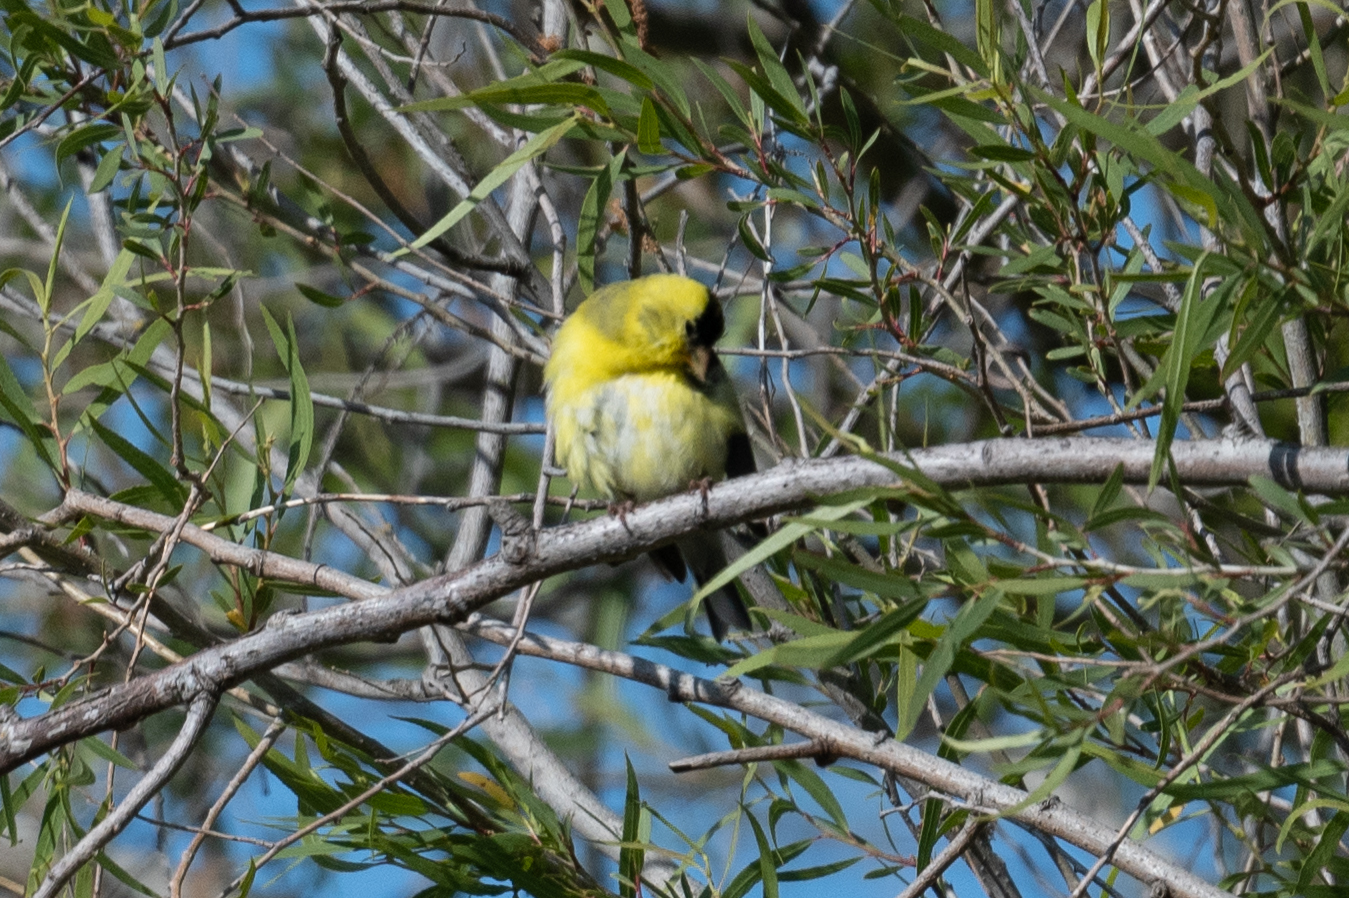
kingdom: Animalia
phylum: Chordata
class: Aves
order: Passeriformes
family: Fringillidae
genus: Spinus
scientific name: Spinus tristis
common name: American goldfinch
